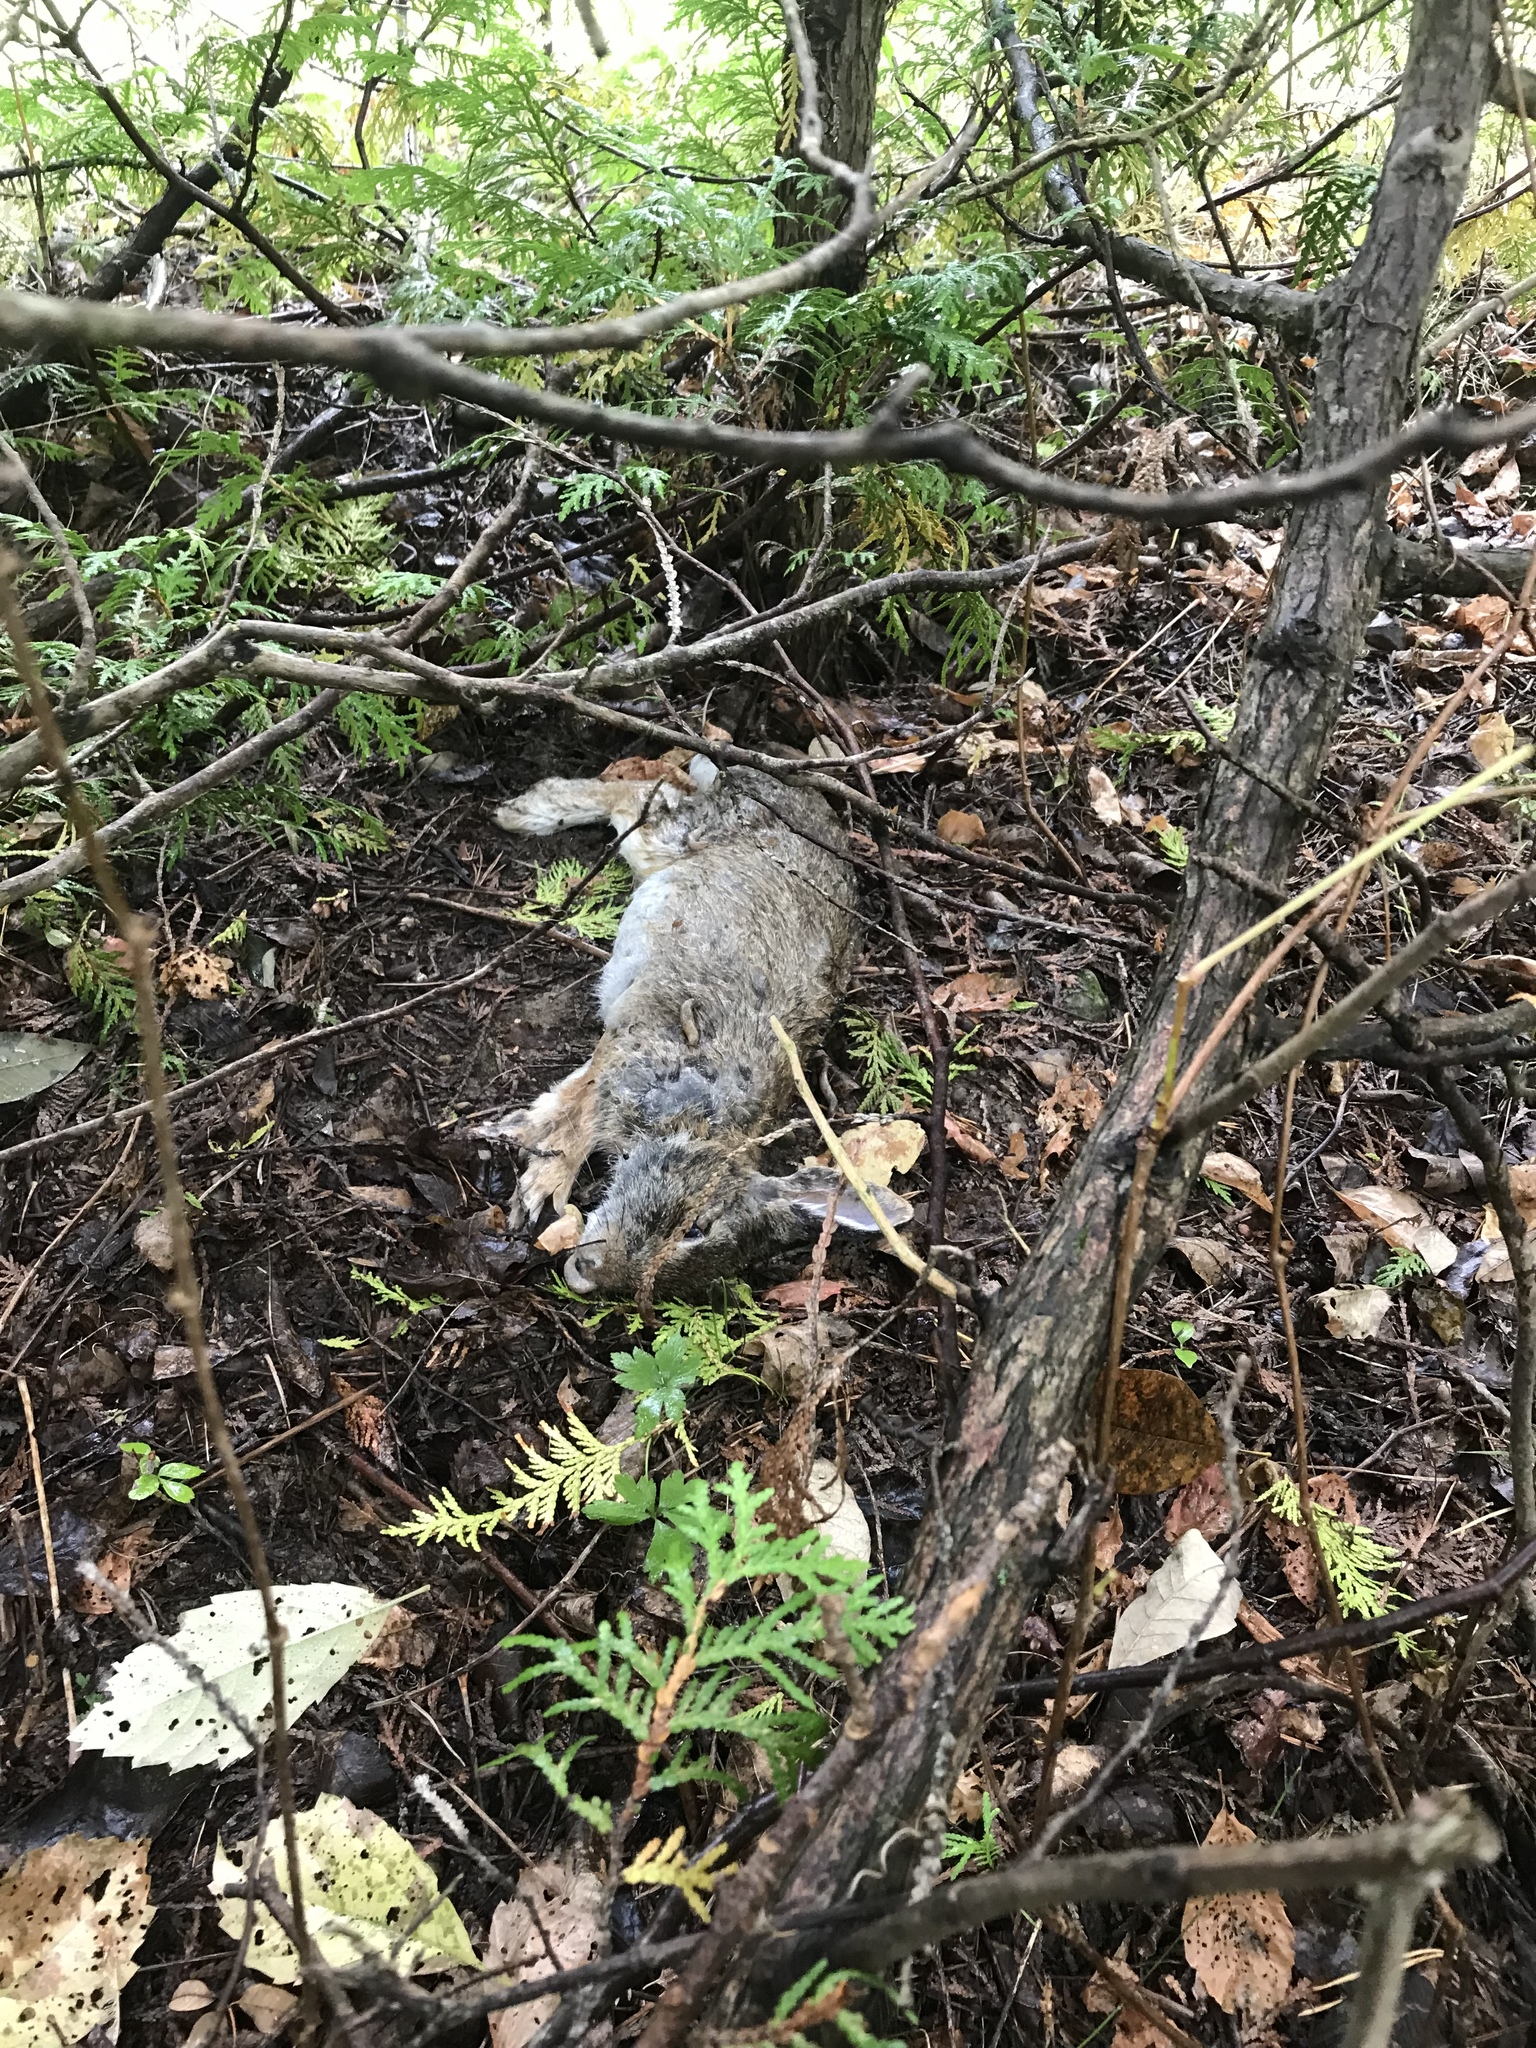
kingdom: Animalia
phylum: Chordata
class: Mammalia
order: Lagomorpha
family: Leporidae
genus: Sylvilagus
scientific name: Sylvilagus floridanus
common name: Eastern cottontail
